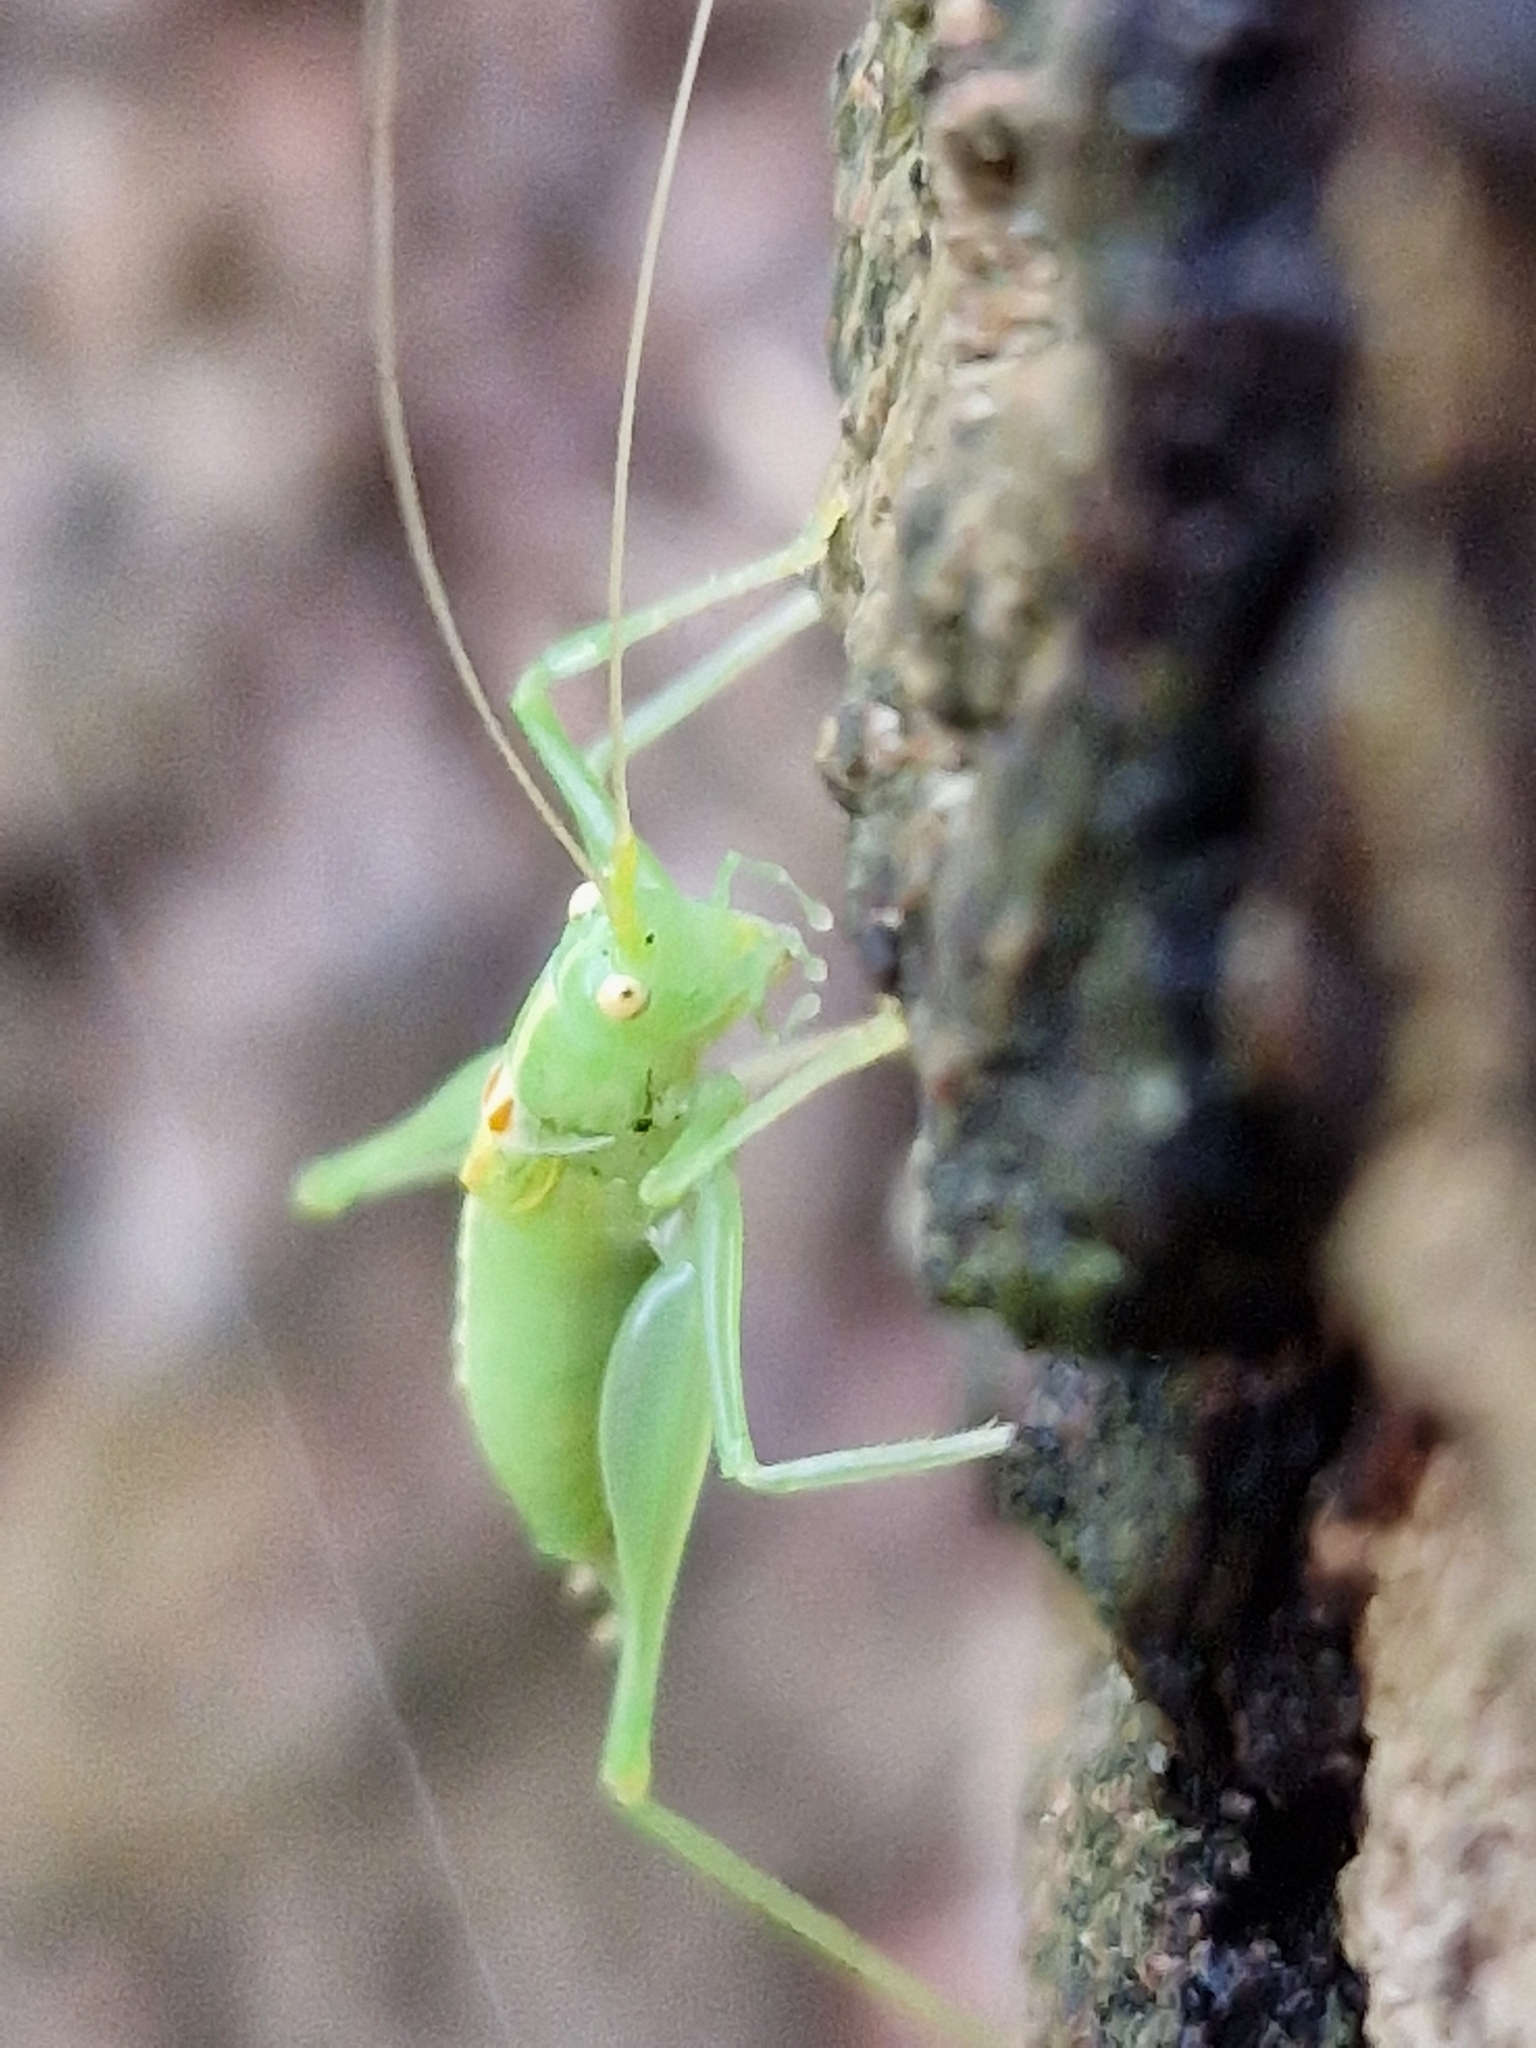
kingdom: Animalia
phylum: Arthropoda
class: Insecta
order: Orthoptera
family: Tettigoniidae
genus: Meconema
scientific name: Meconema meridionale
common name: Southern oak bush-cricket
